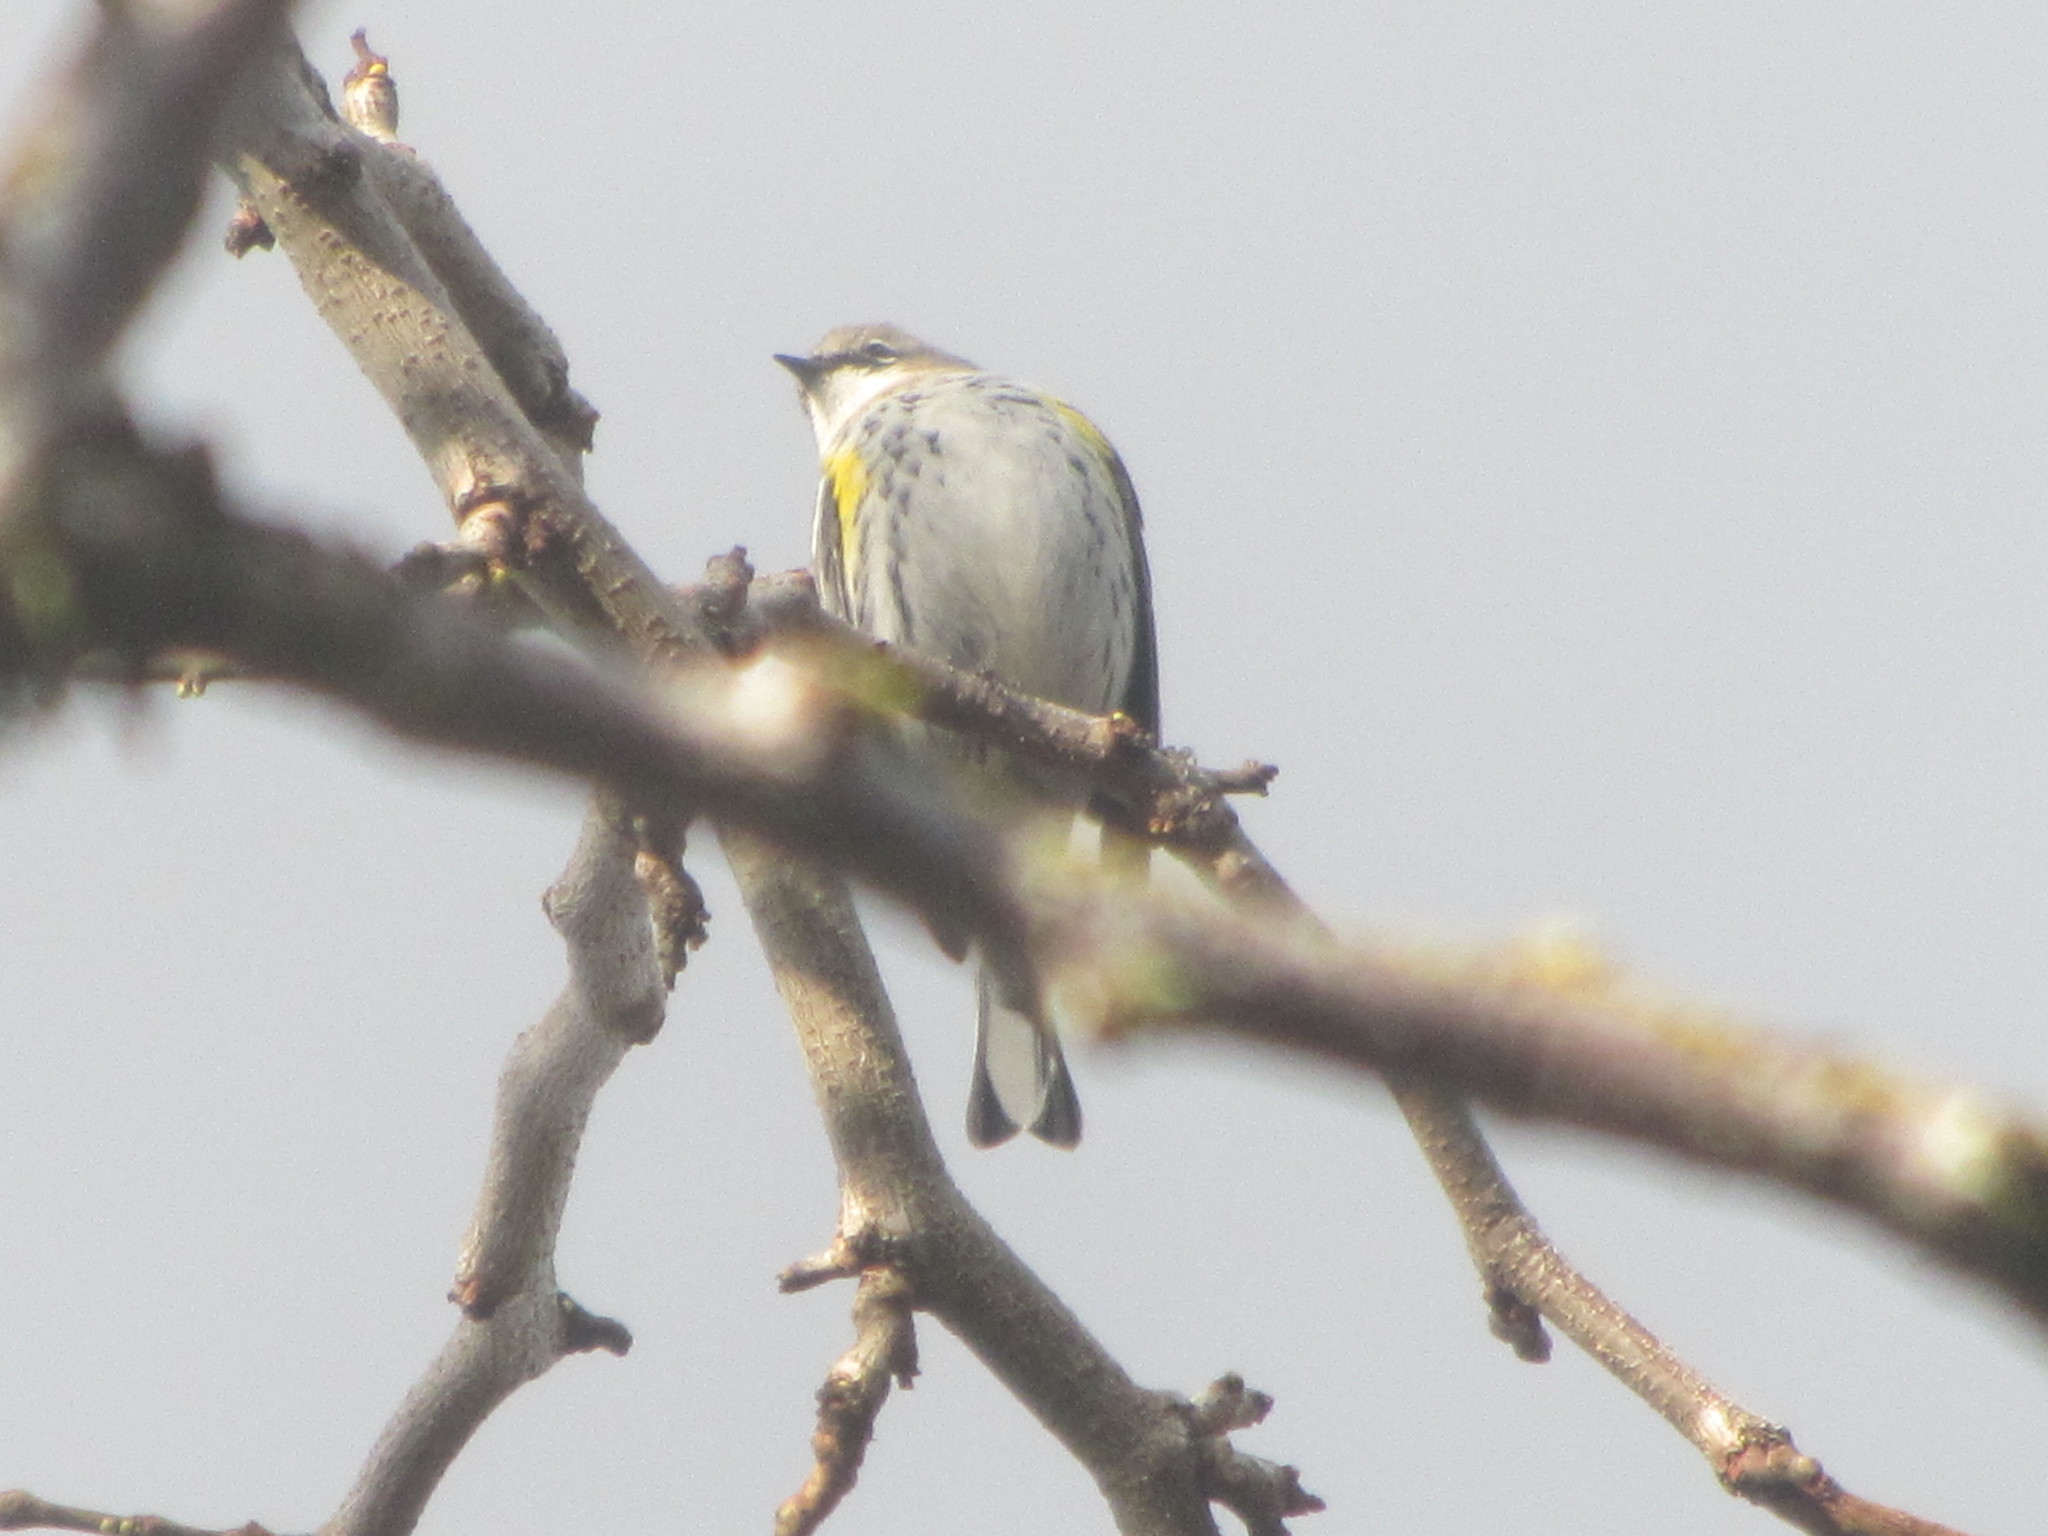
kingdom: Animalia
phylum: Chordata
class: Aves
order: Passeriformes
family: Parulidae
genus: Setophaga
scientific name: Setophaga coronata
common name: Myrtle warbler
